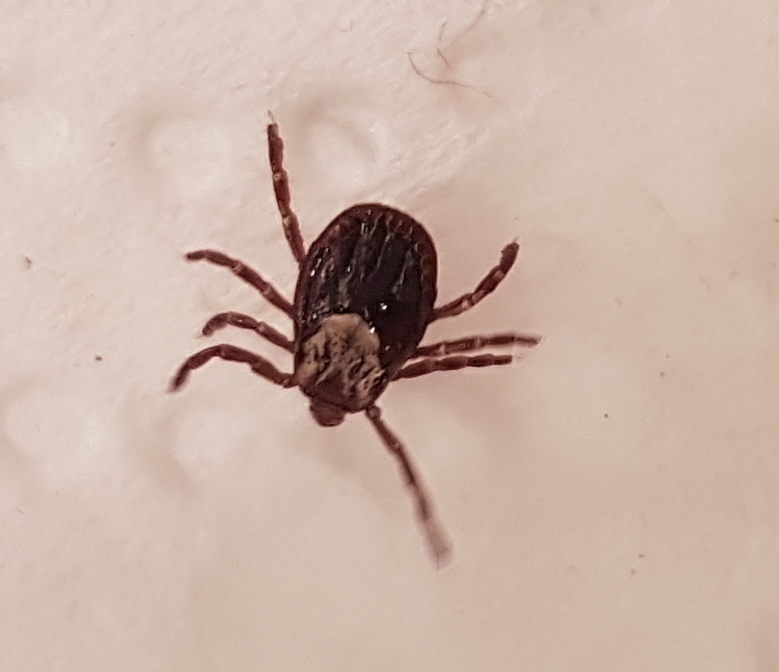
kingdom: Animalia
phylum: Arthropoda
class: Arachnida
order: Ixodida
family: Ixodidae
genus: Dermacentor
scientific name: Dermacentor variabilis
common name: American dog tick
